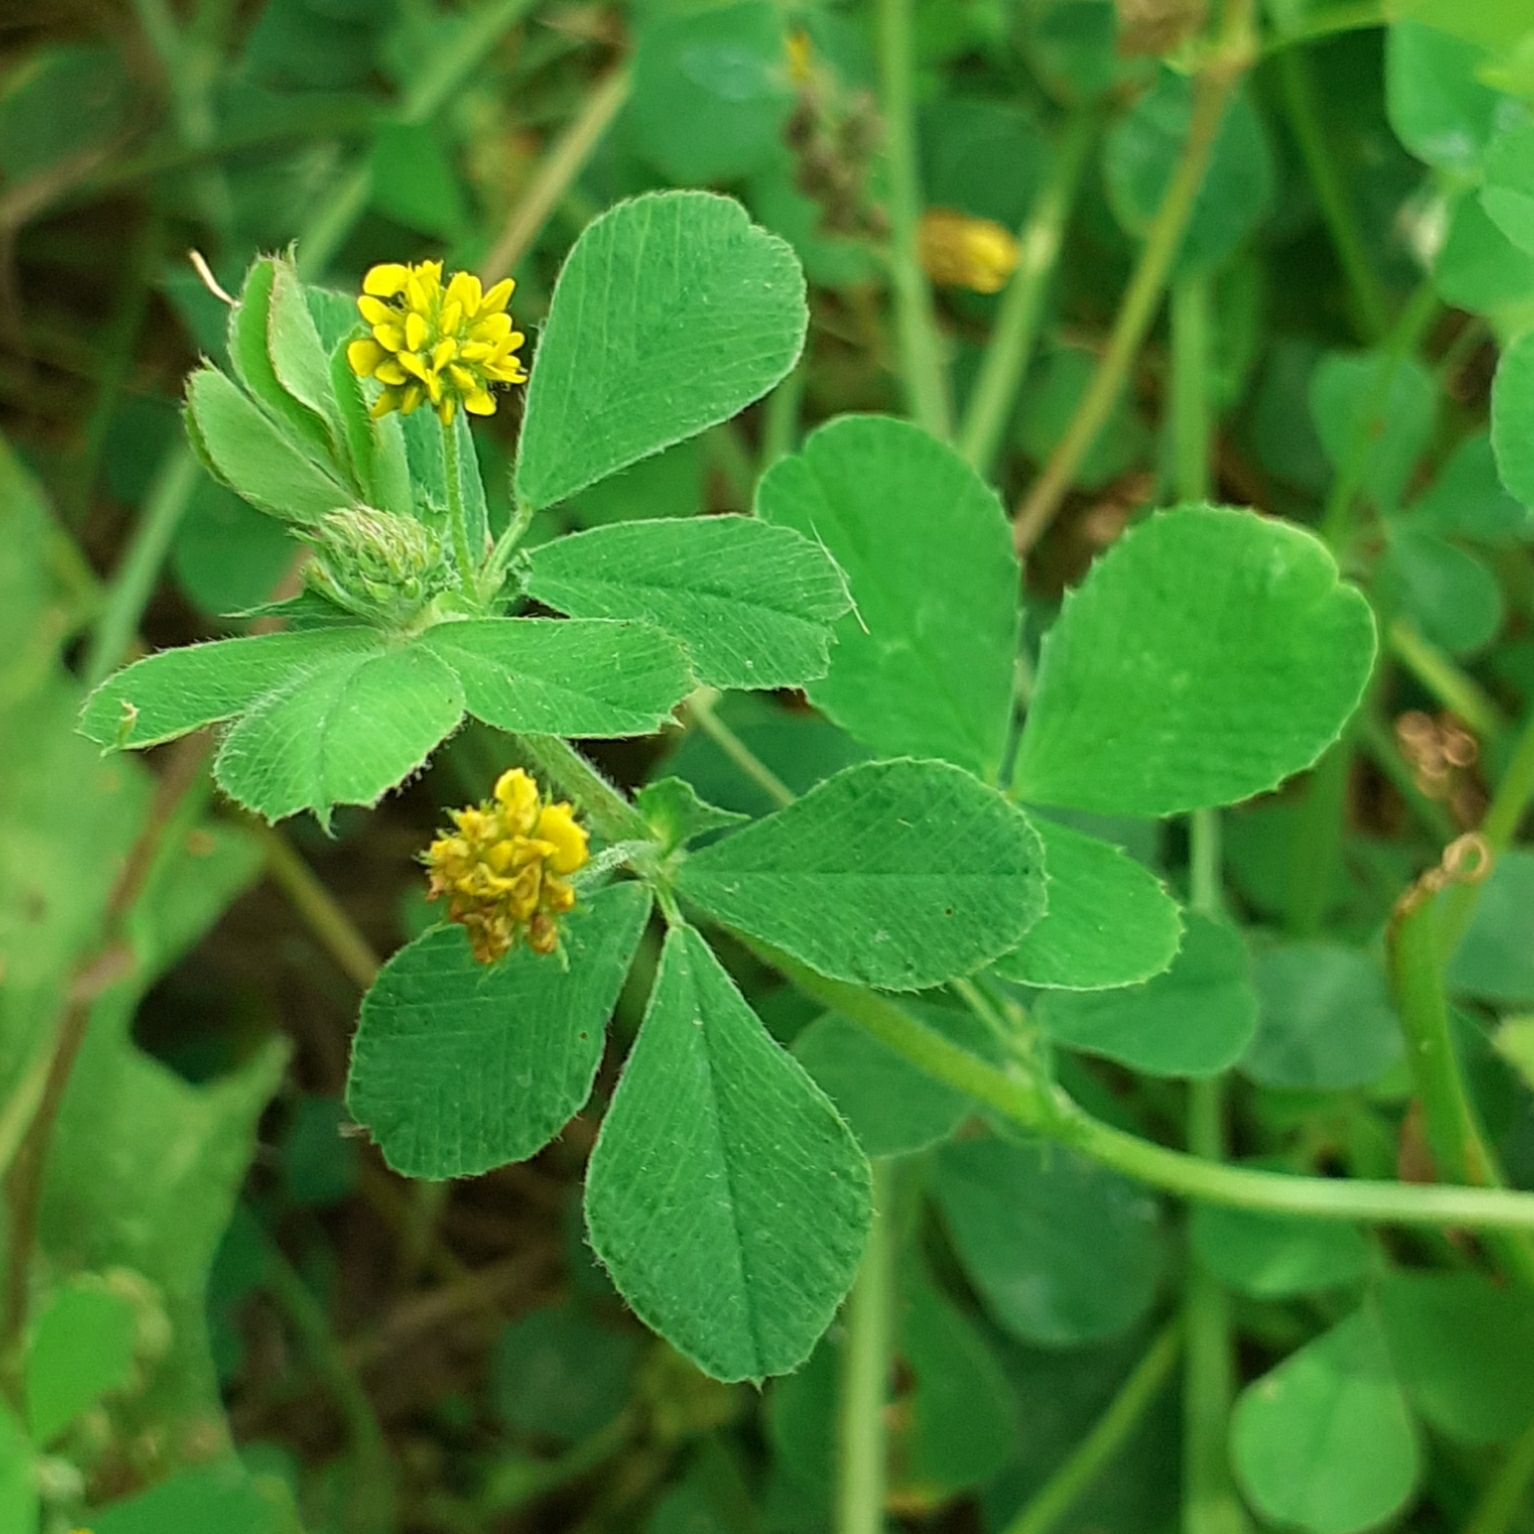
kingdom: Plantae
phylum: Tracheophyta
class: Magnoliopsida
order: Fabales
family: Fabaceae
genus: Medicago
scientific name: Medicago lupulina
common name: Black medick
